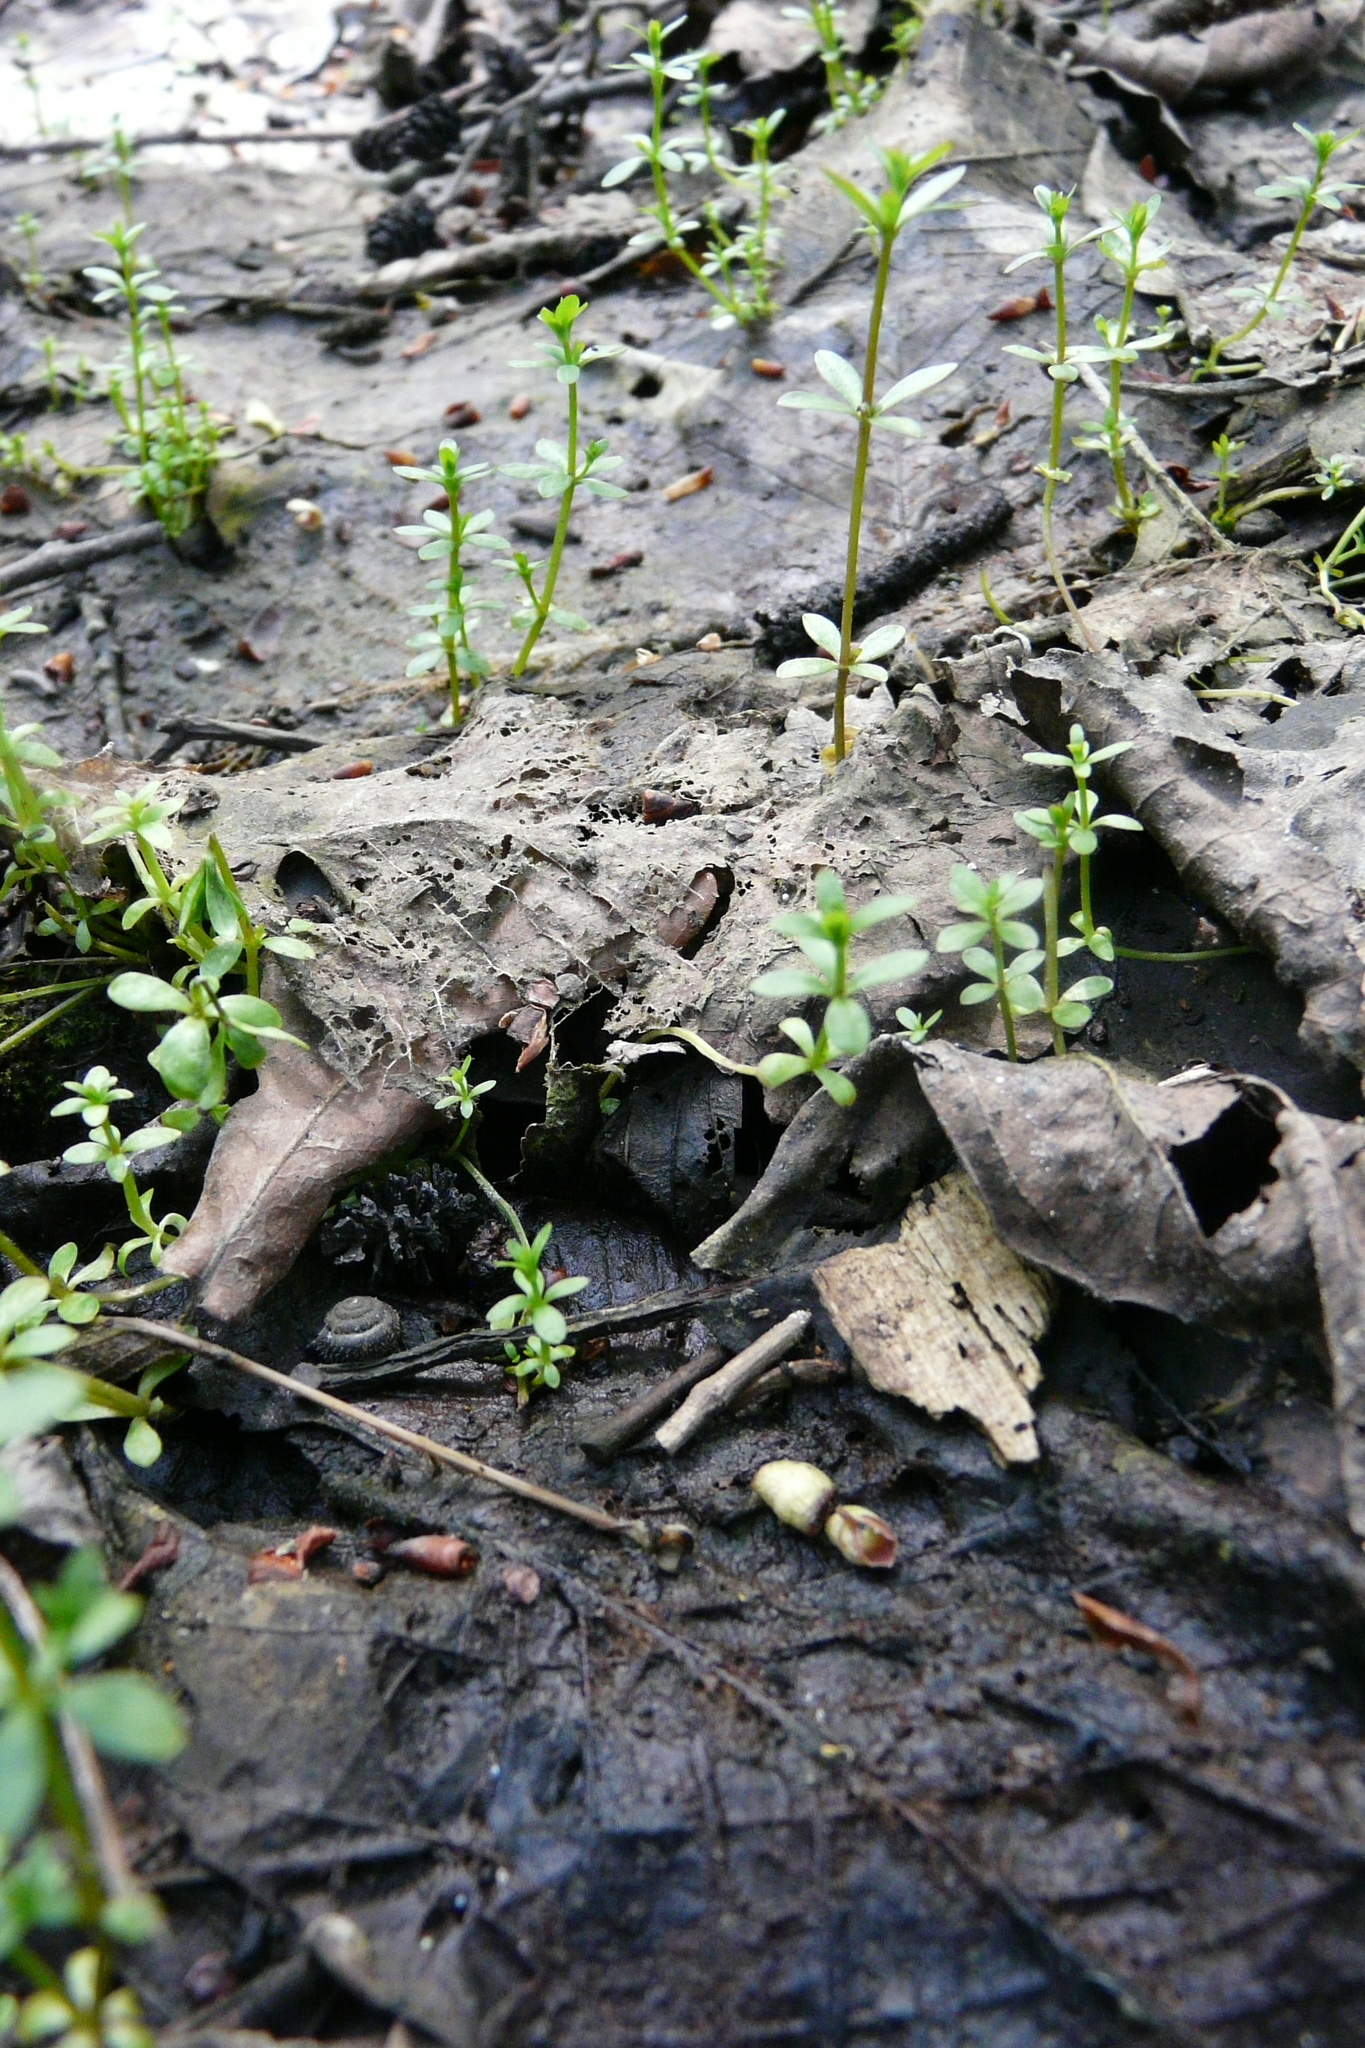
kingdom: Plantae
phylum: Tracheophyta
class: Magnoliopsida
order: Gentianales
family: Rubiaceae
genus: Galium
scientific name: Galium palustre
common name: Common marsh-bedstraw
